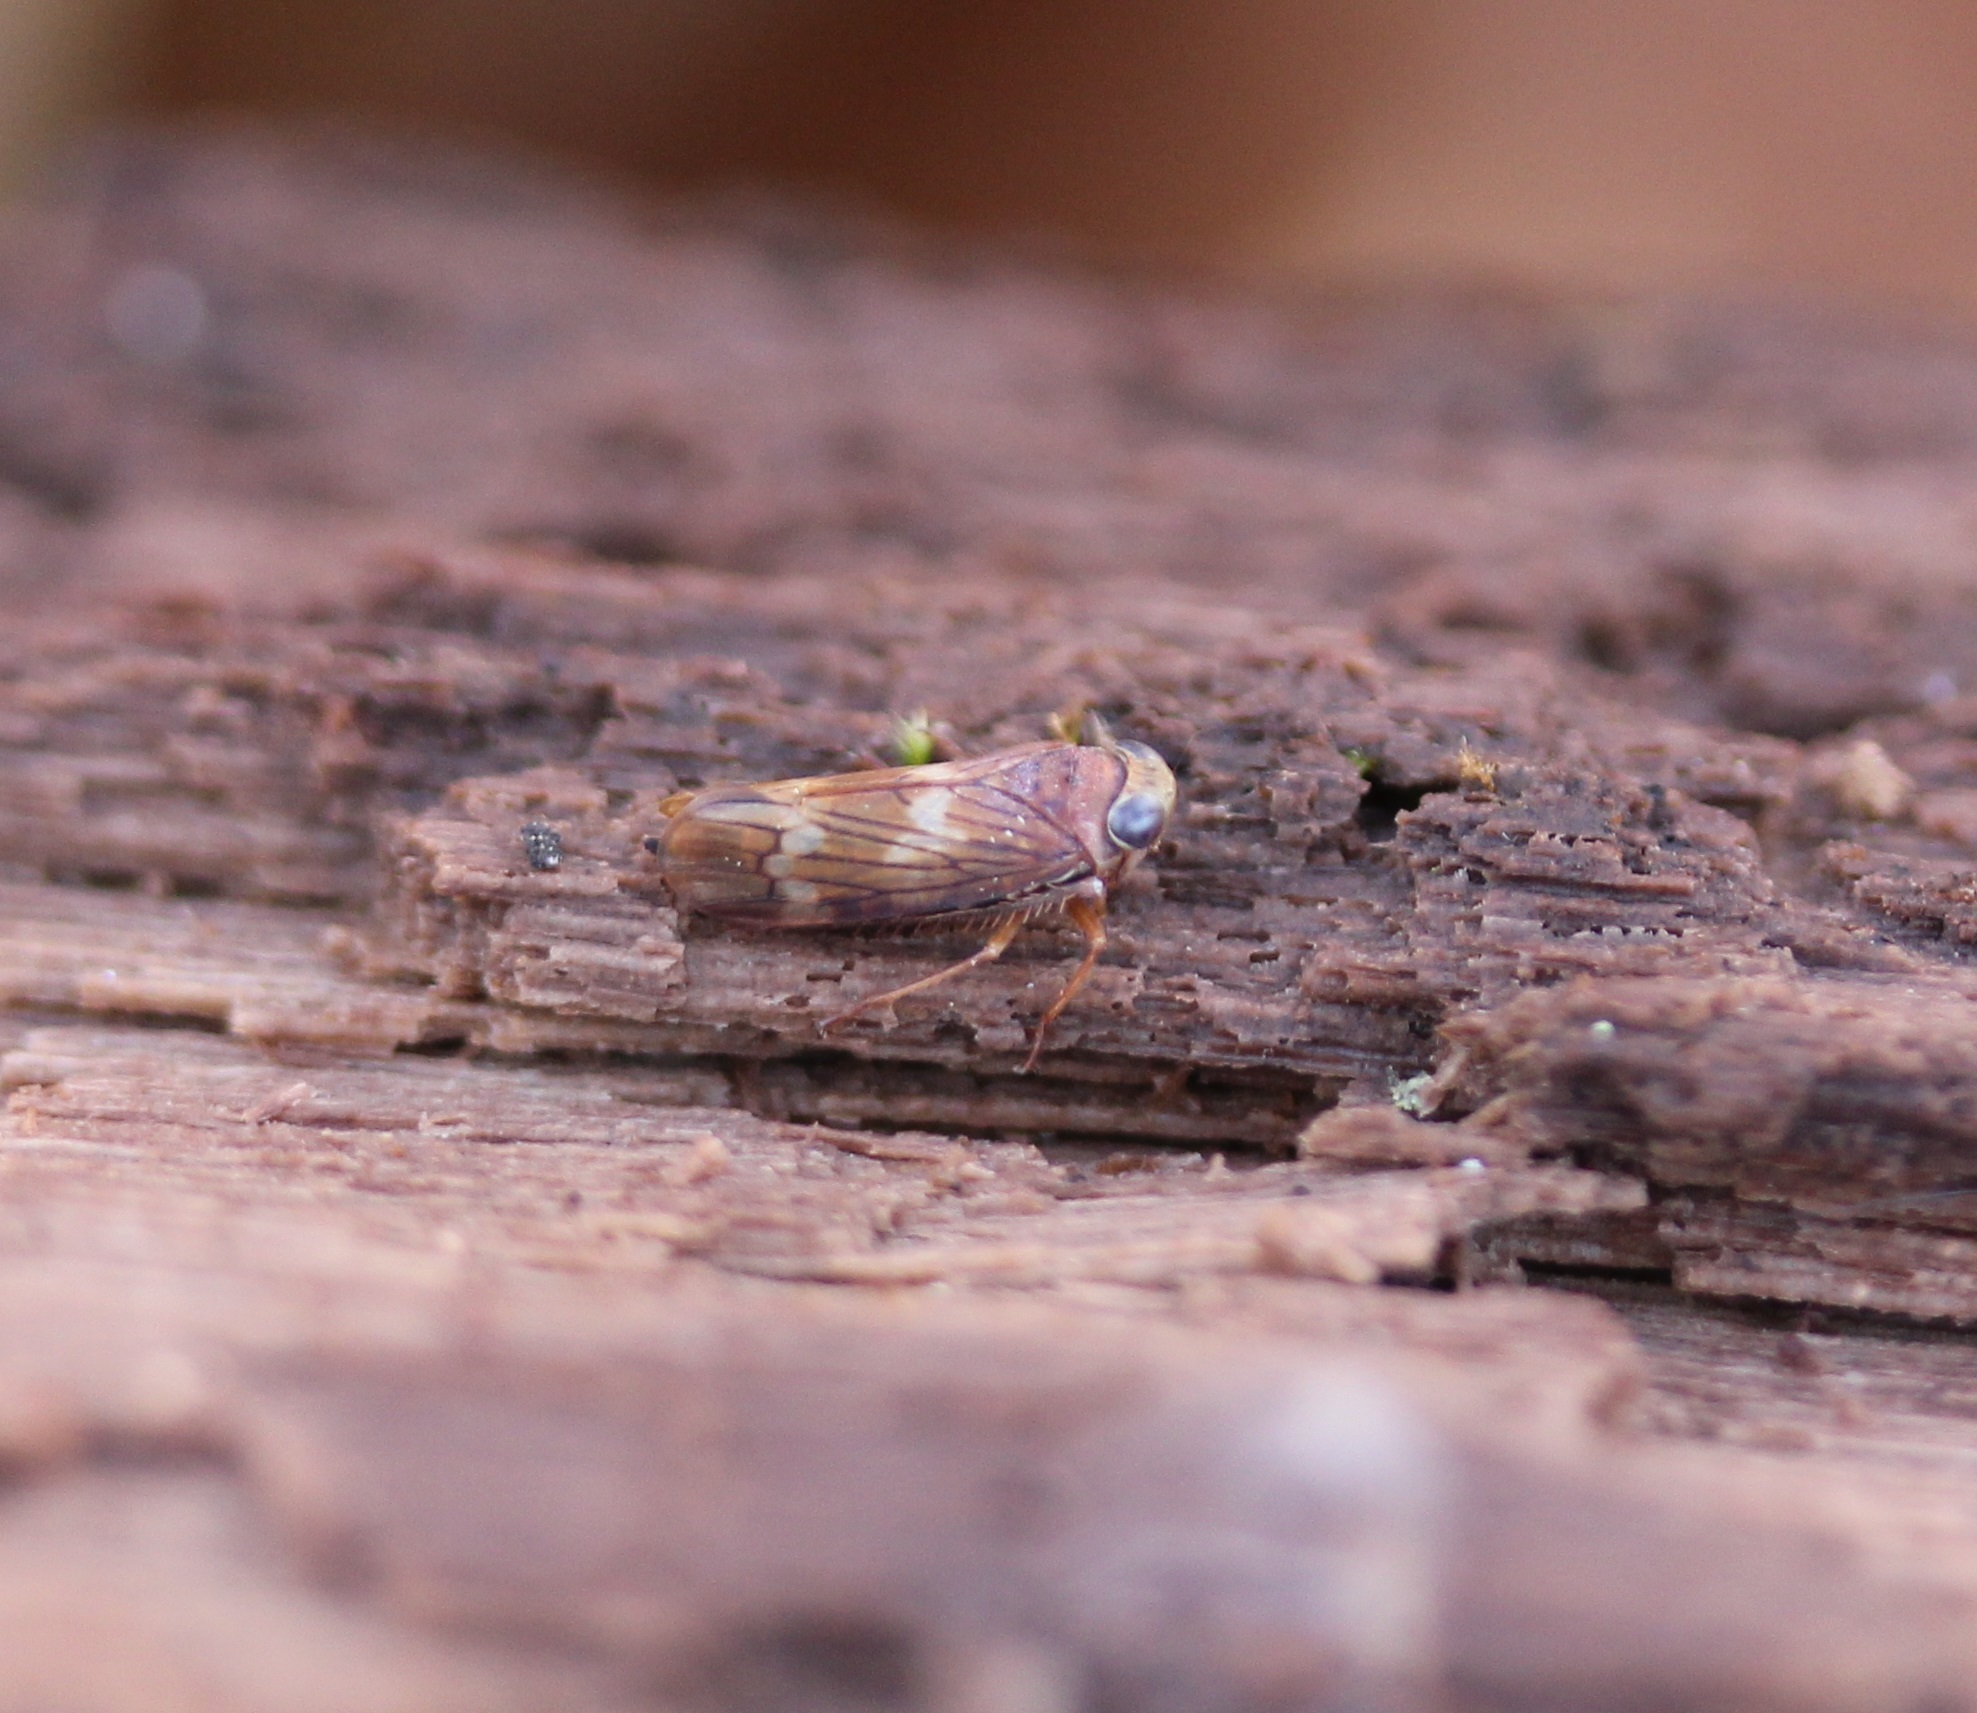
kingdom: Animalia
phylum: Arthropoda
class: Insecta
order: Hemiptera
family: Cicadellidae
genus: Jikradia
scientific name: Jikradia olitoria
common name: Coppery leafhopper
